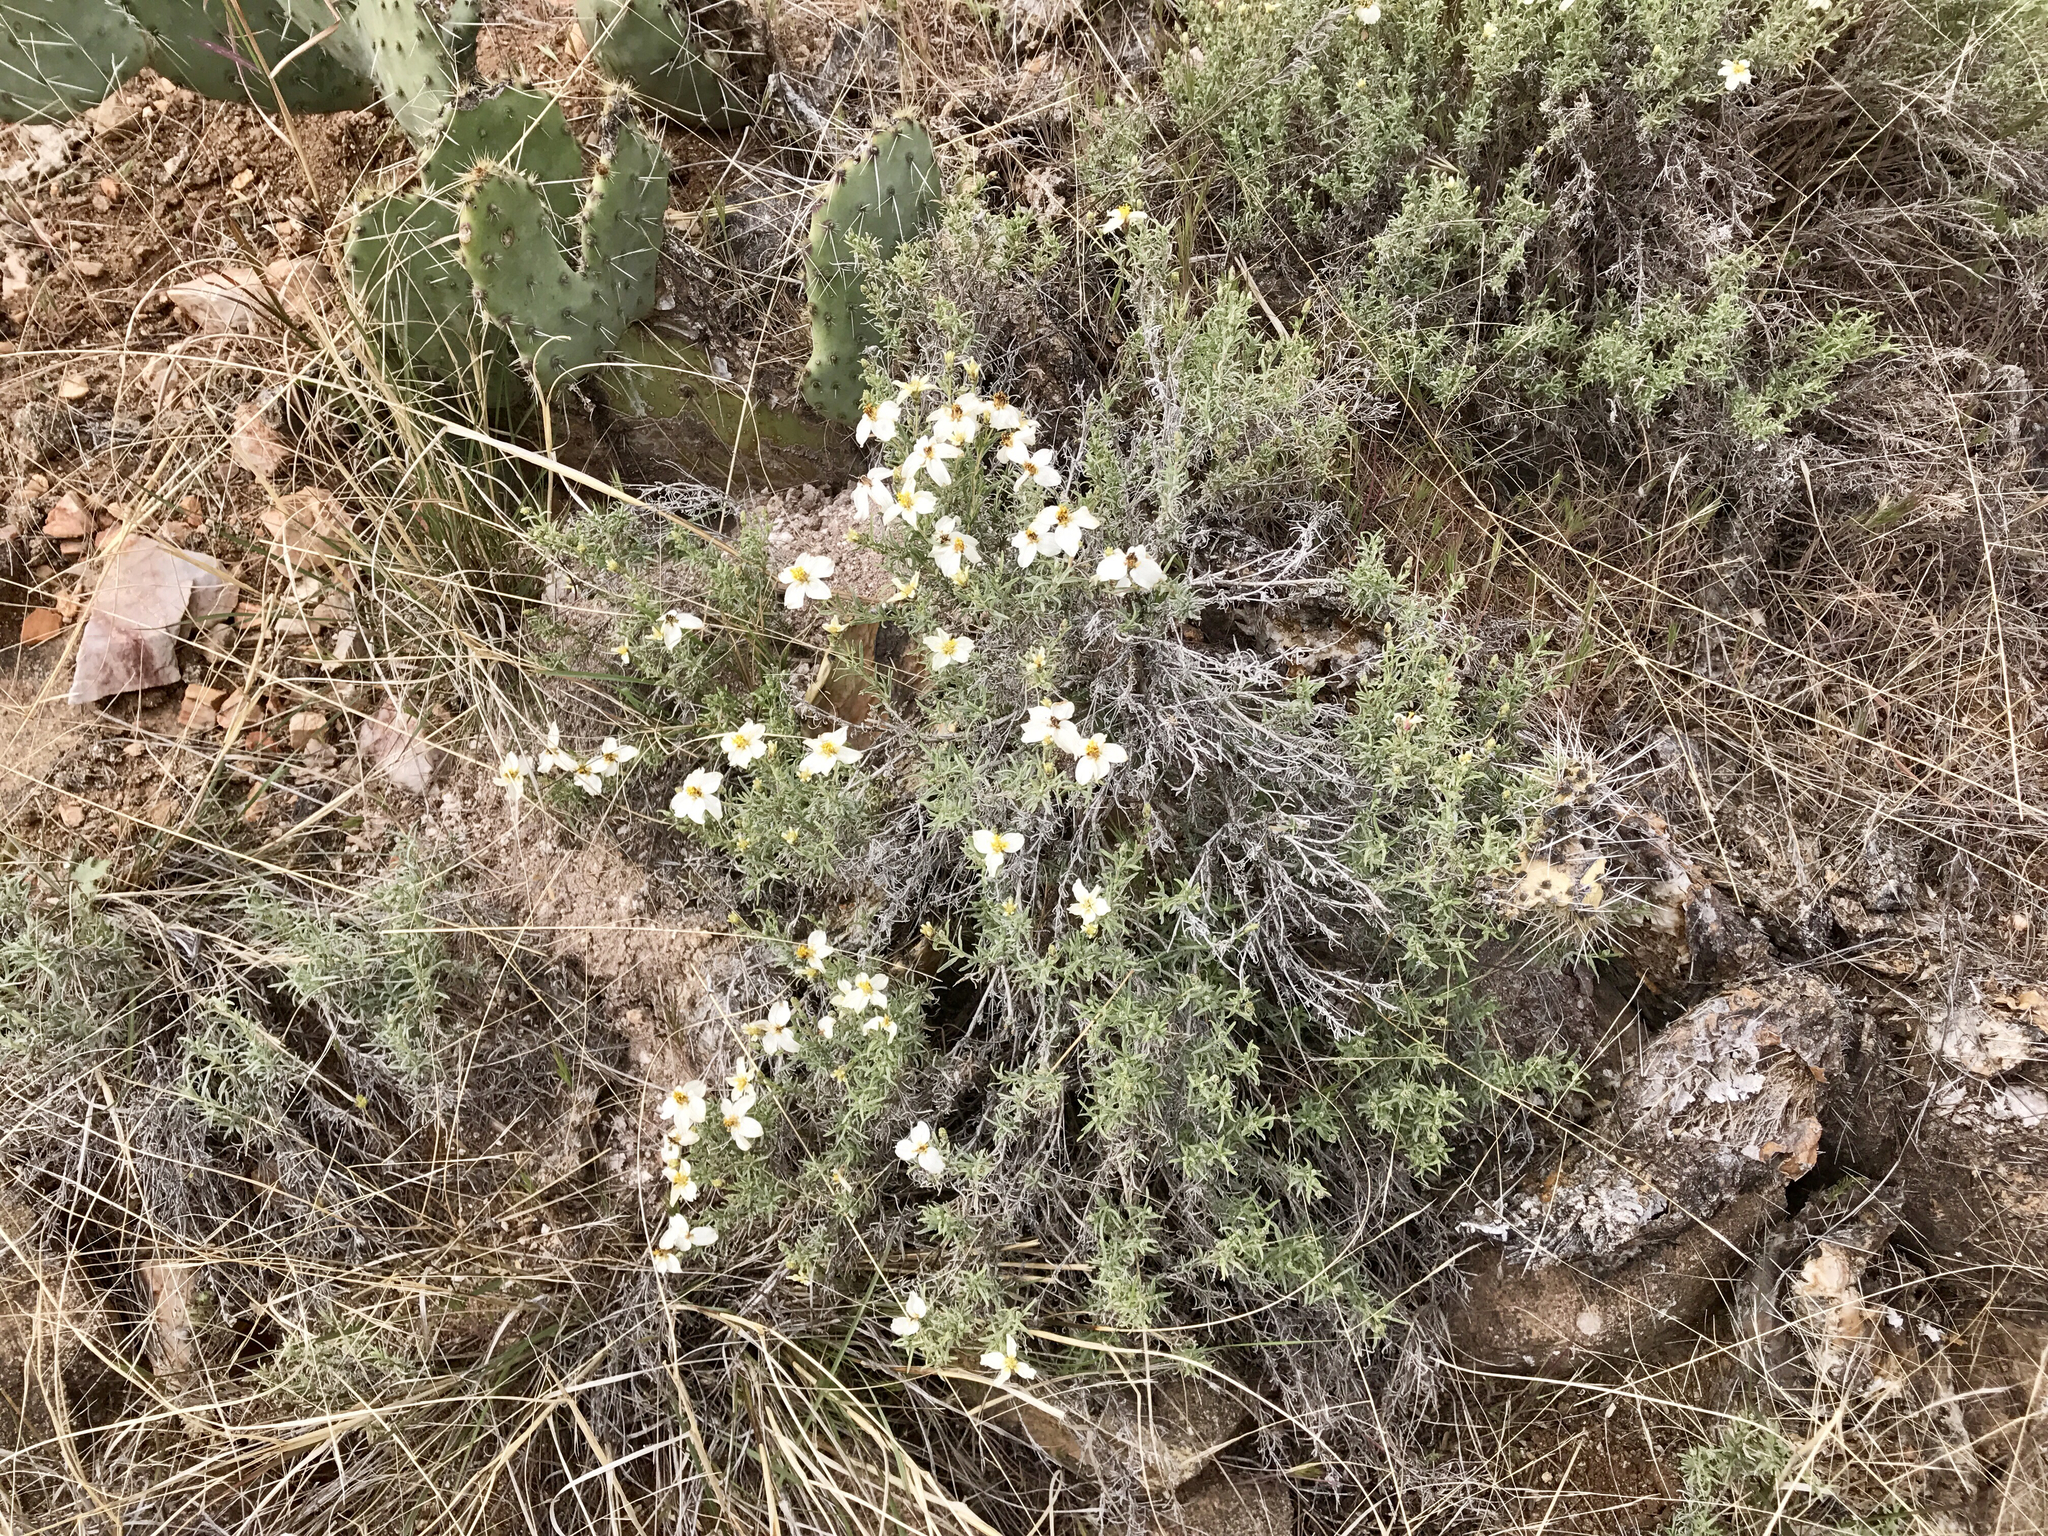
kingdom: Plantae
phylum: Tracheophyta
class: Magnoliopsida
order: Asterales
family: Asteraceae
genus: Zinnia
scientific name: Zinnia acerosa
